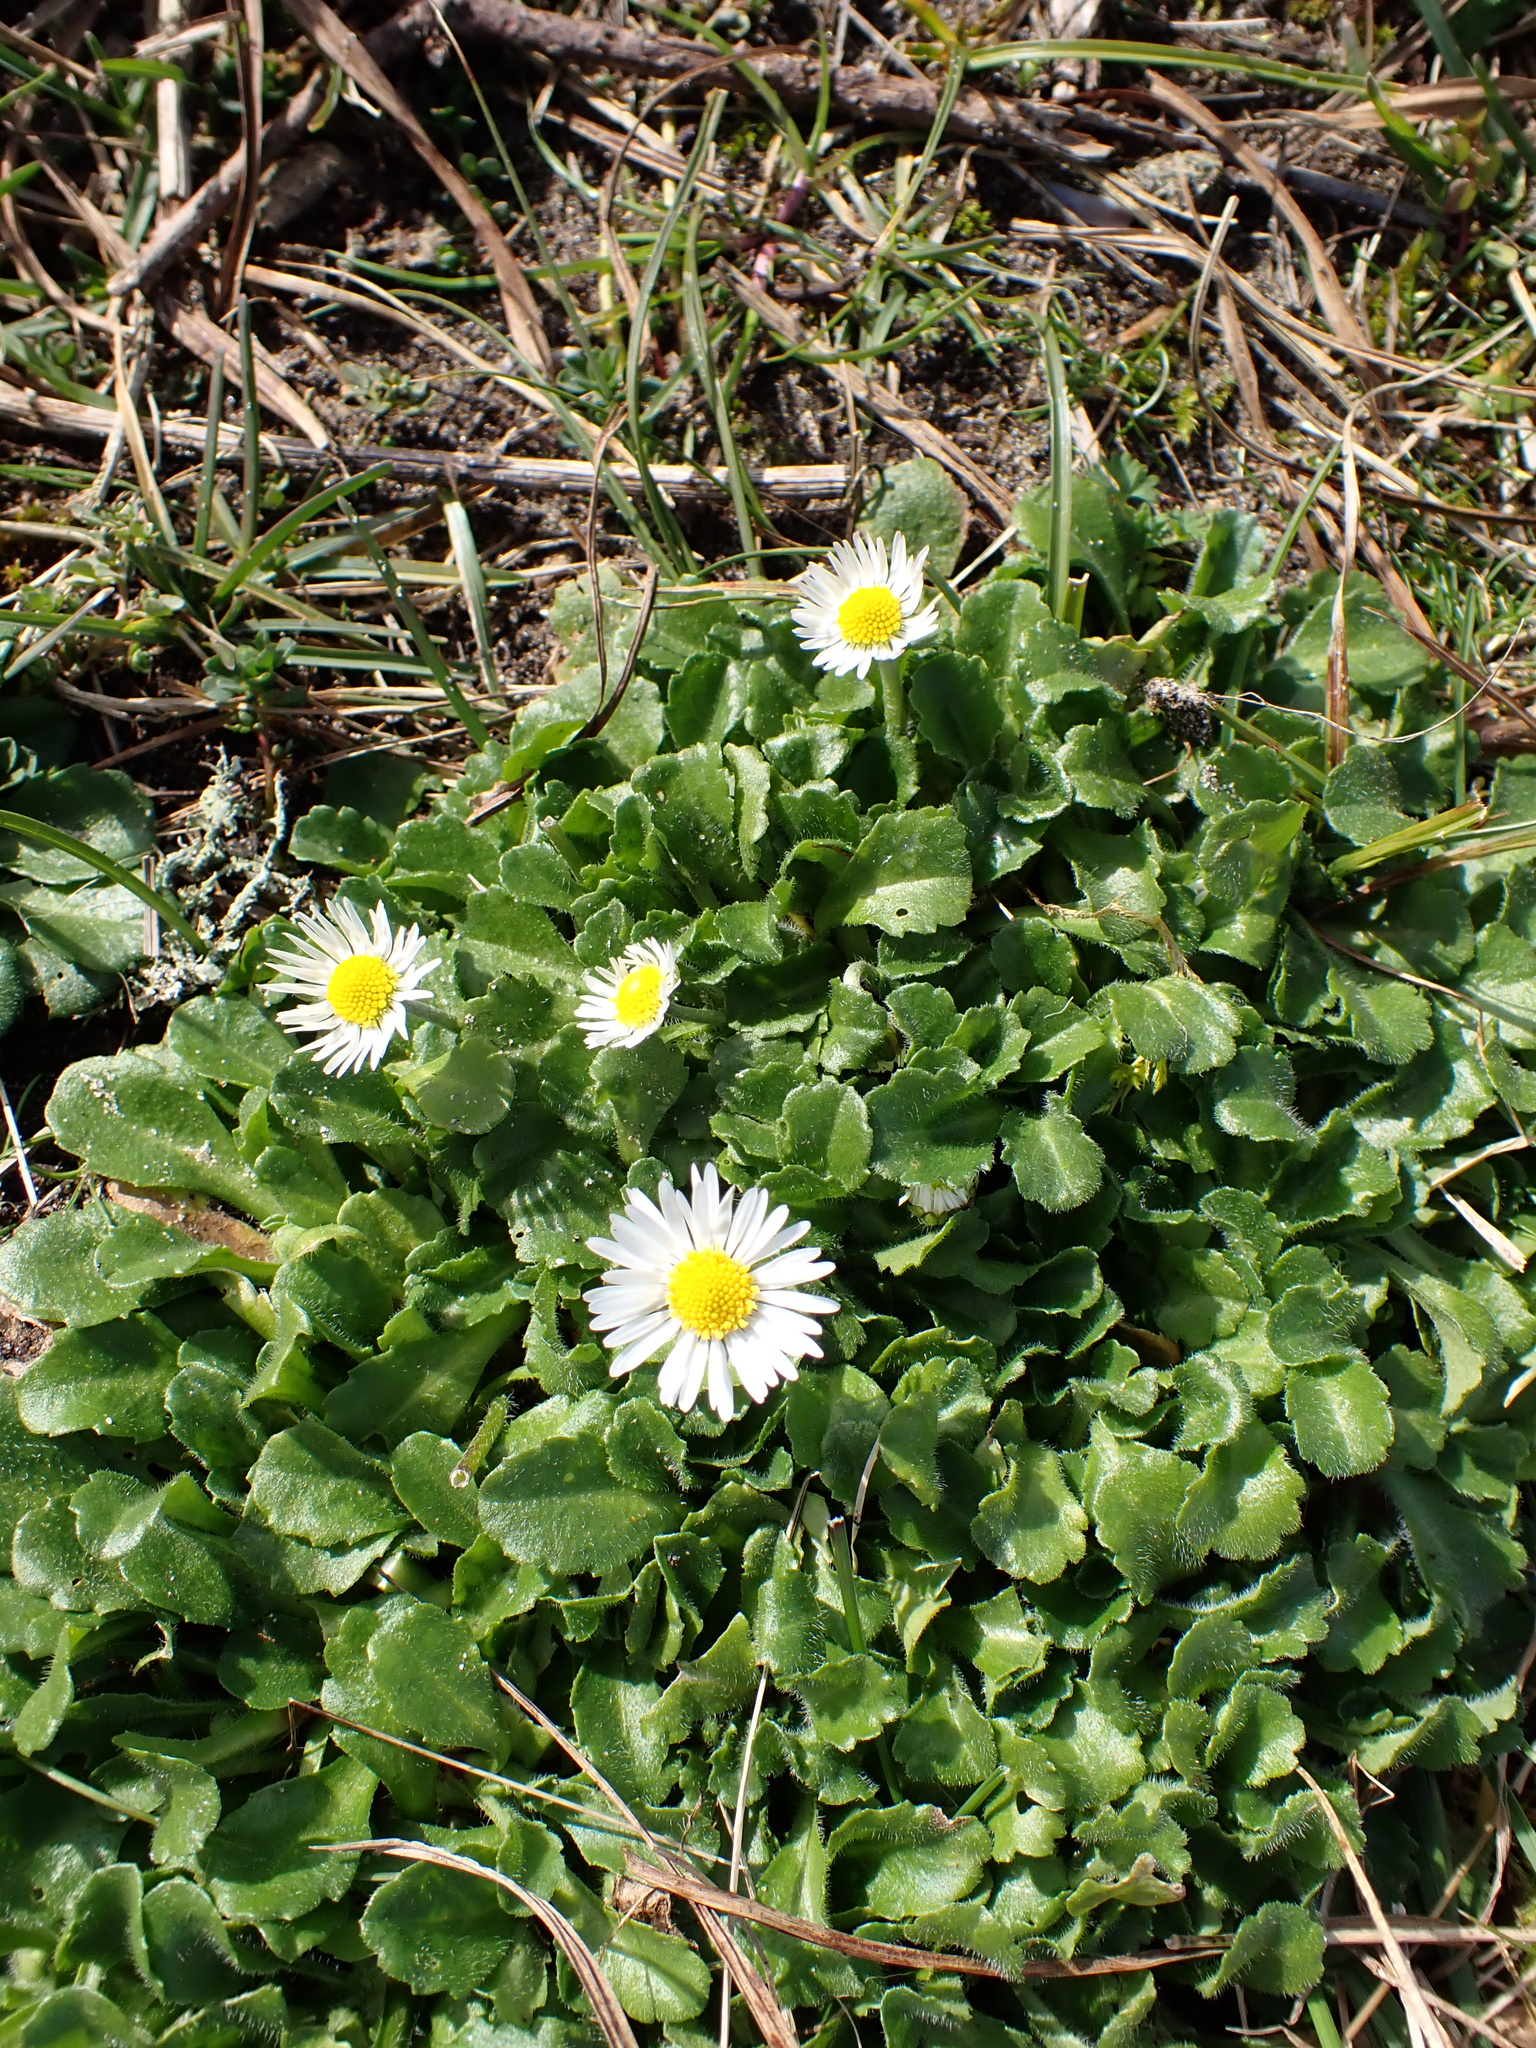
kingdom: Plantae
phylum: Tracheophyta
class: Magnoliopsida
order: Asterales
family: Asteraceae
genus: Bellis
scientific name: Bellis perennis
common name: Lawndaisy
